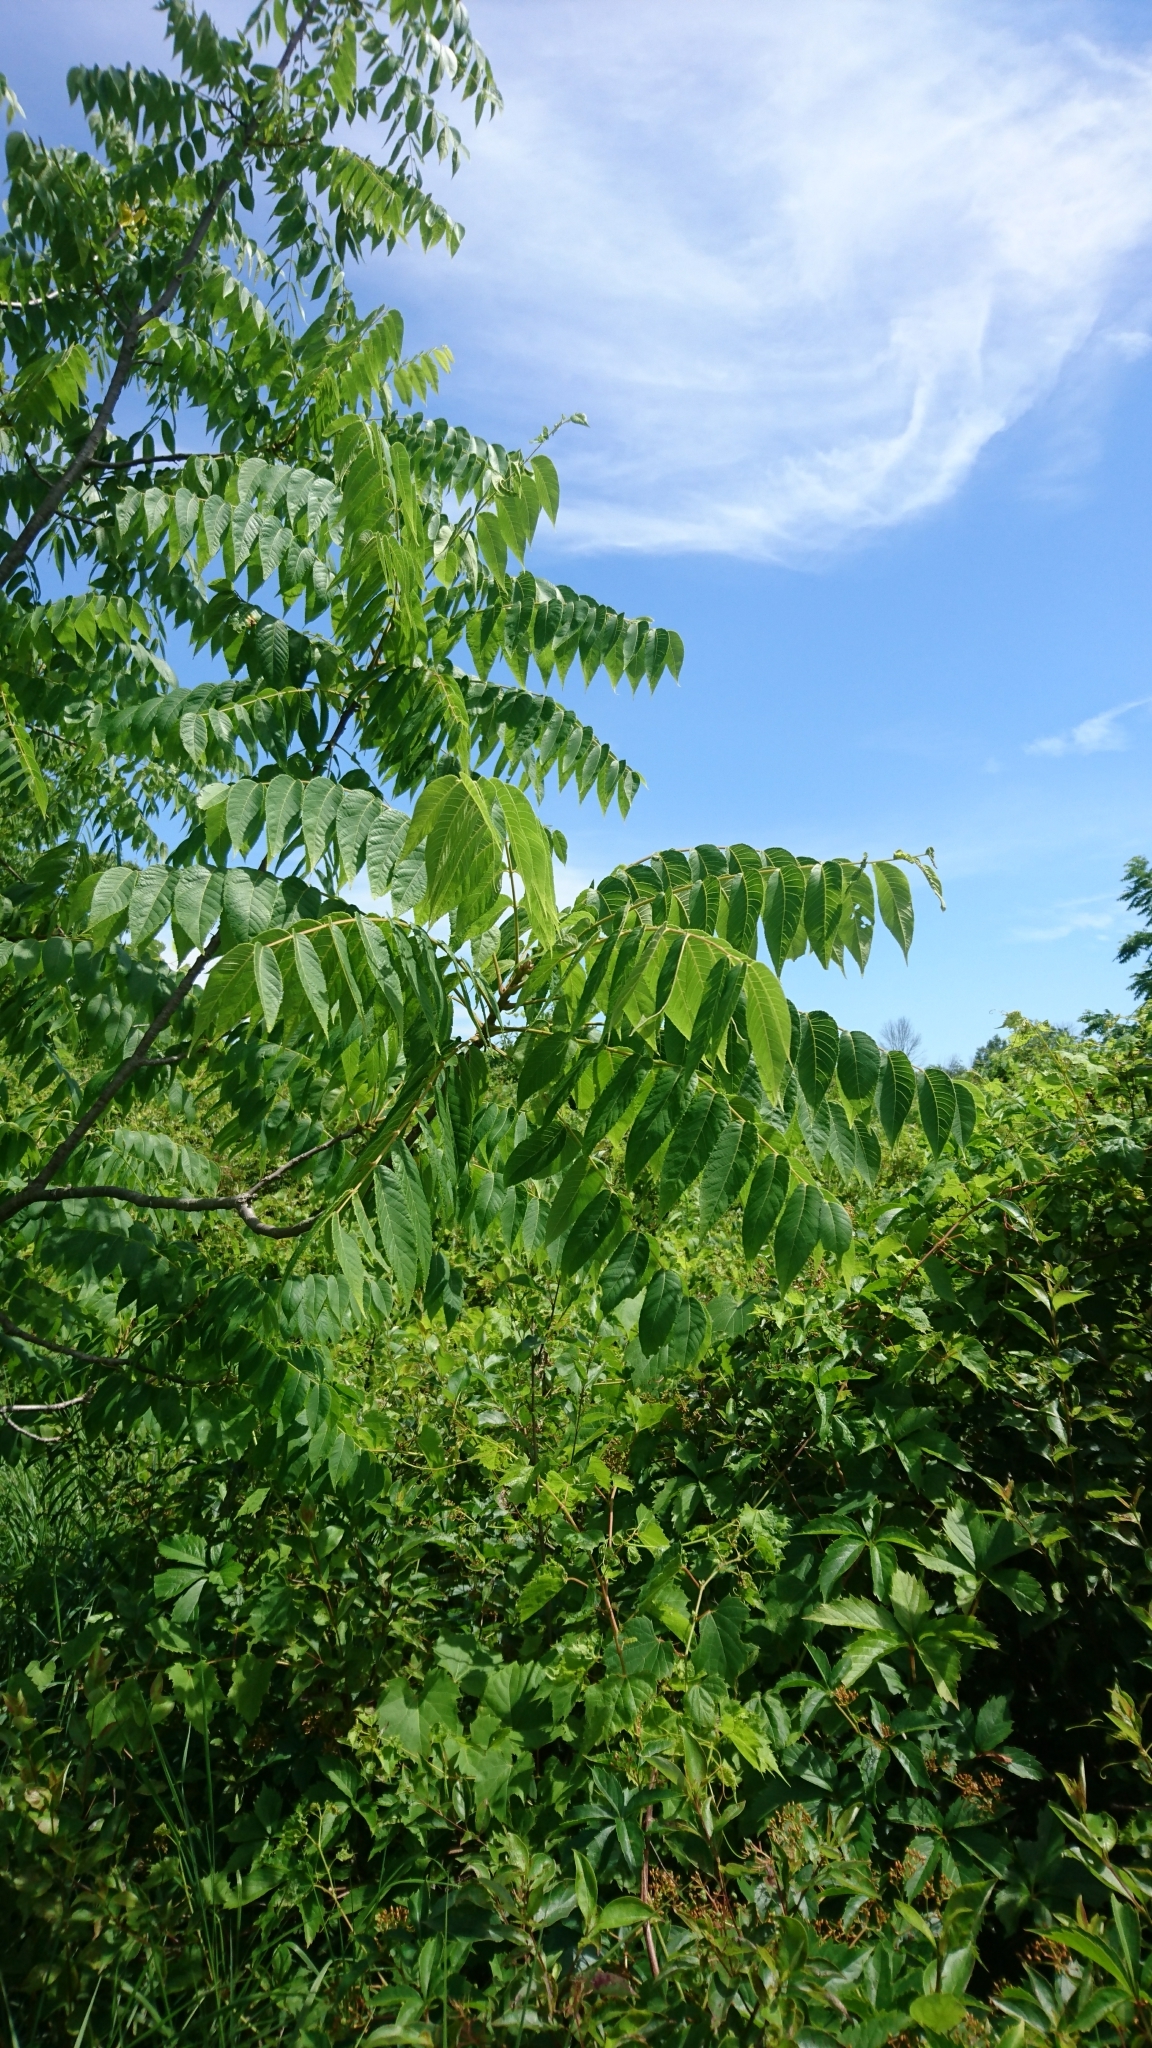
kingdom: Plantae
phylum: Tracheophyta
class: Magnoliopsida
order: Sapindales
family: Anacardiaceae
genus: Rhus
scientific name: Rhus typhina
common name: Staghorn sumac
